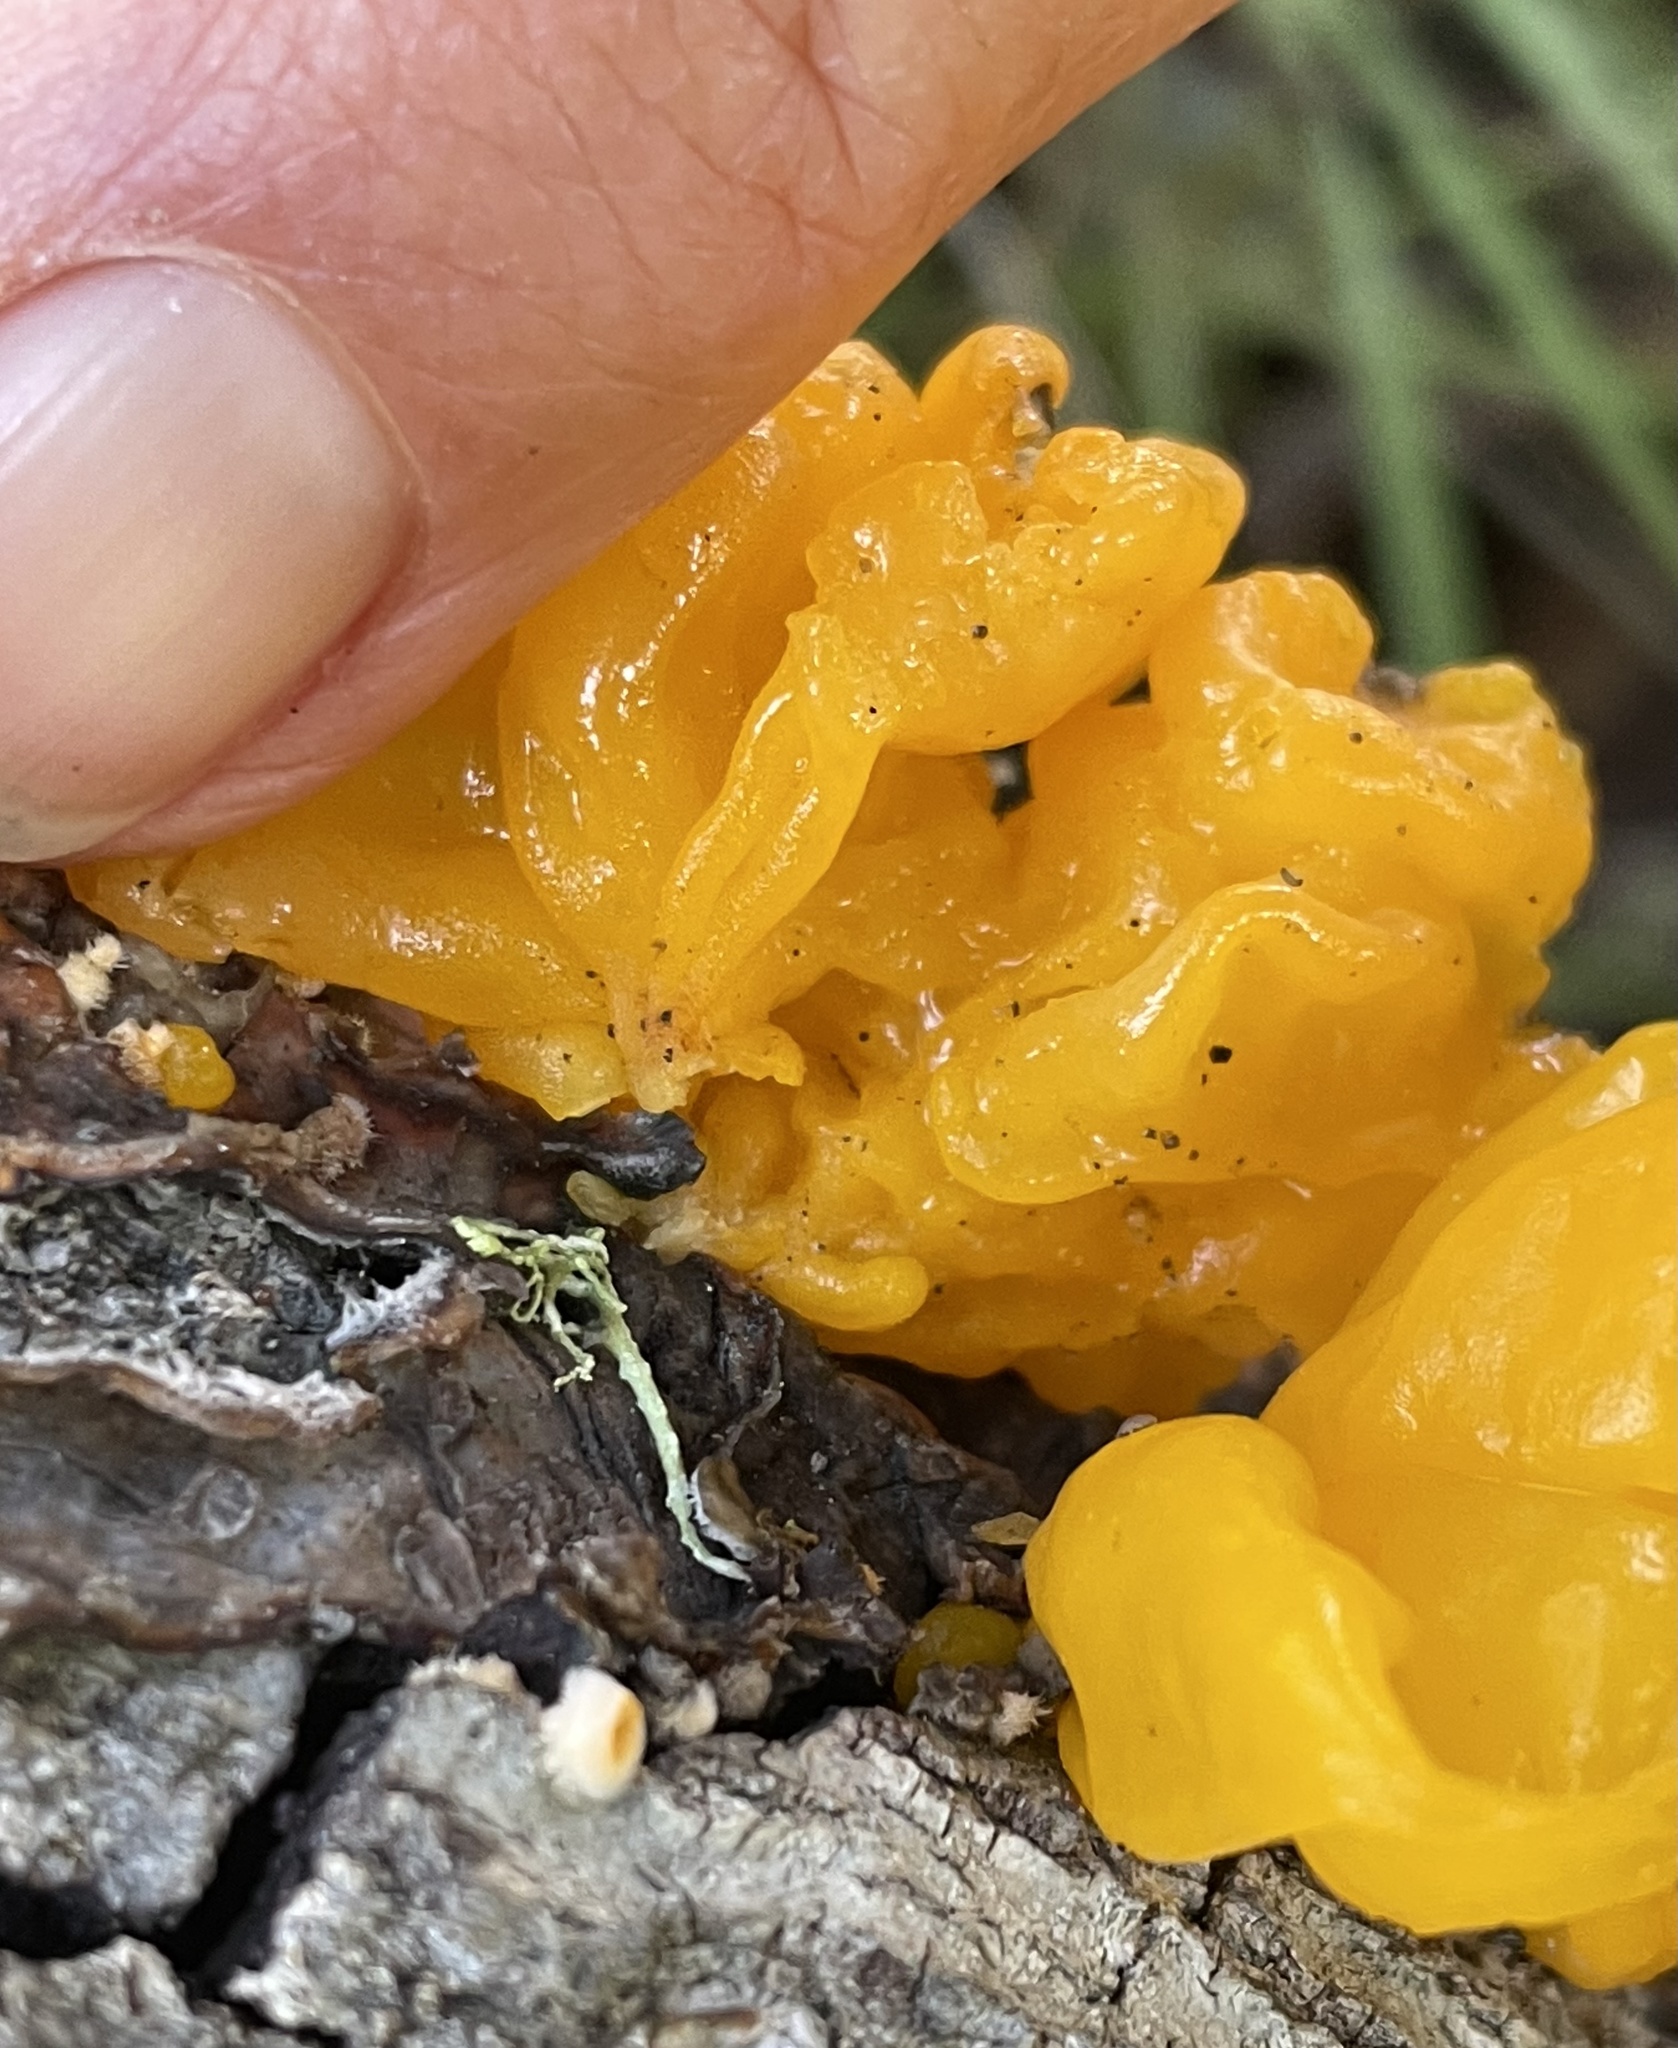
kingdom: Fungi
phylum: Basidiomycota
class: Tremellomycetes
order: Tremellales
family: Naemateliaceae
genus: Naematelia
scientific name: Naematelia aurantia
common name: Golden ear
